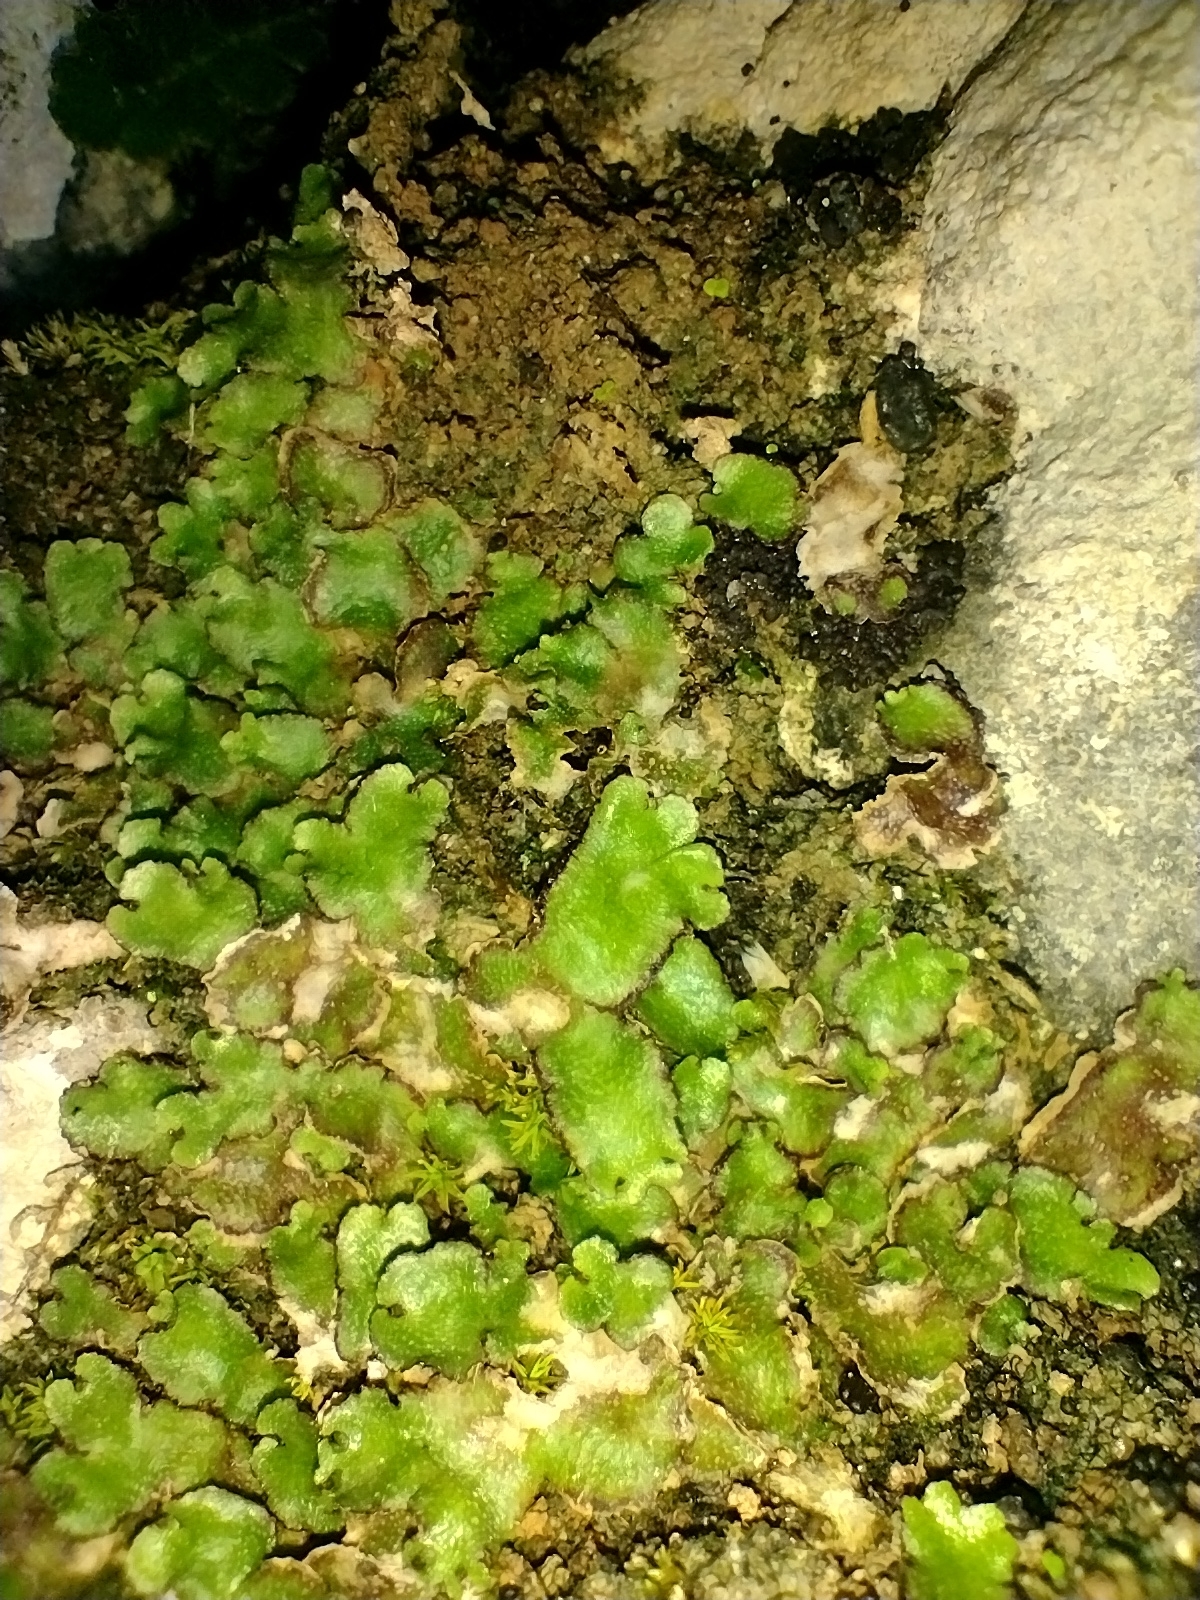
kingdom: Plantae
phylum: Marchantiophyta
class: Marchantiopsida
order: Marchantiales
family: Aytoniaceae
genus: Reboulia
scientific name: Reboulia hemisphaerica
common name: Purple-margined liverwort
